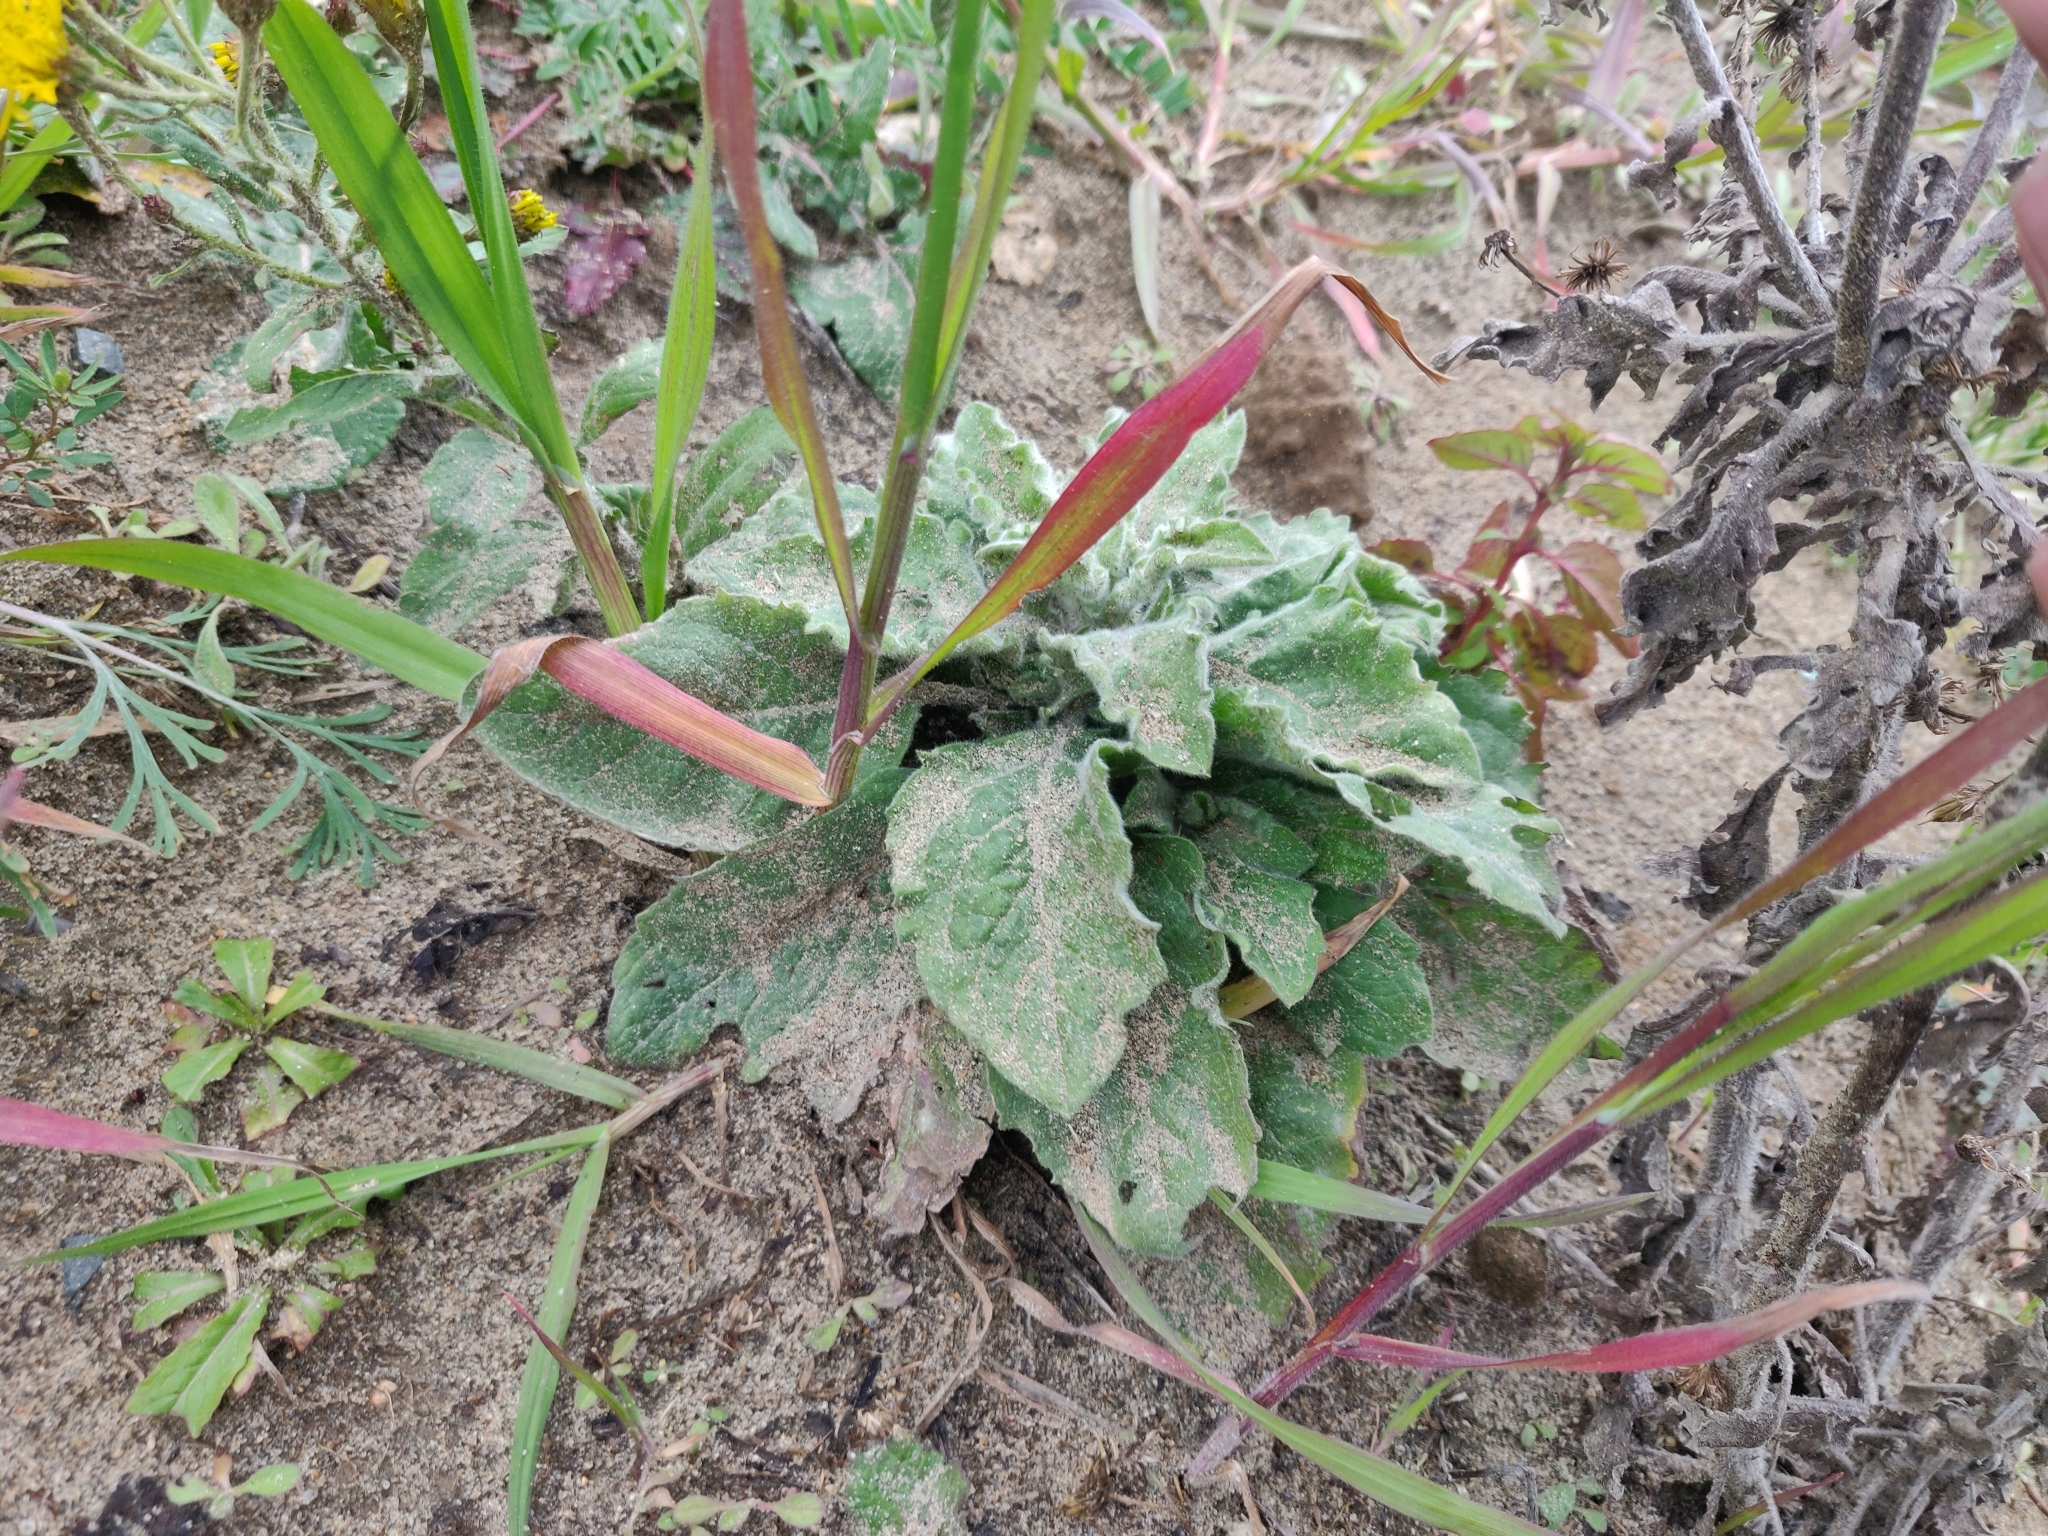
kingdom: Plantae
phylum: Tracheophyta
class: Magnoliopsida
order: Asterales
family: Asteraceae
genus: Heterotheca
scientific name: Heterotheca grandiflora
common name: Telegraphweed
